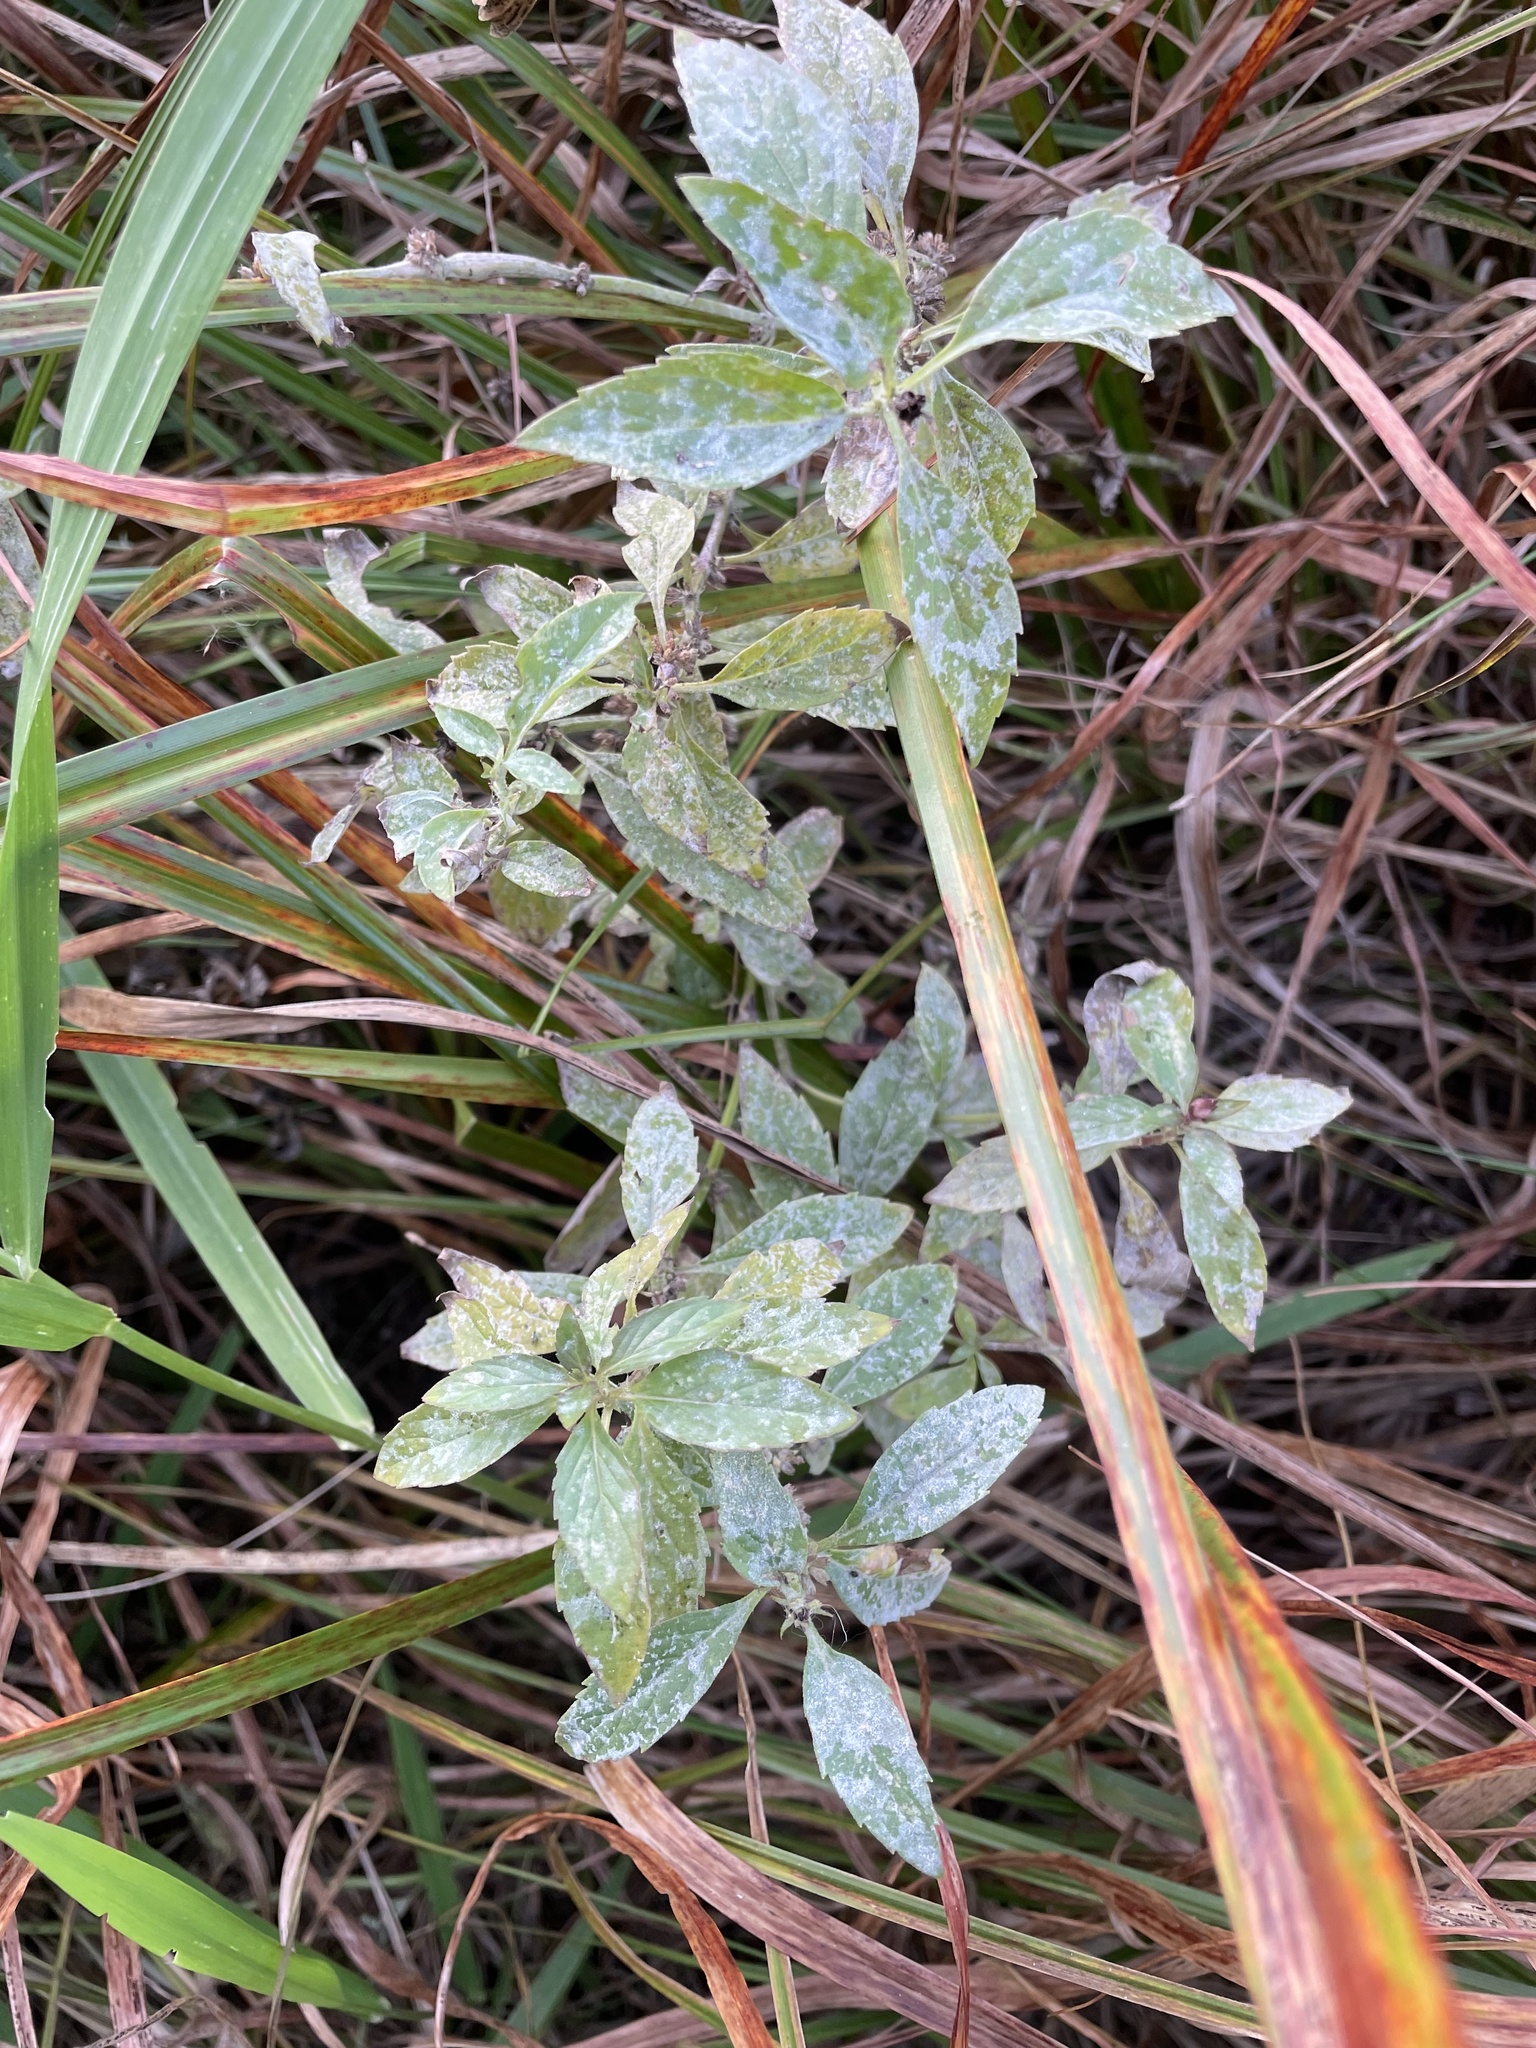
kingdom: Plantae
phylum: Tracheophyta
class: Magnoliopsida
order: Lamiales
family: Lamiaceae
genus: Mentha
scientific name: Mentha canadensis
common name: American corn mint
